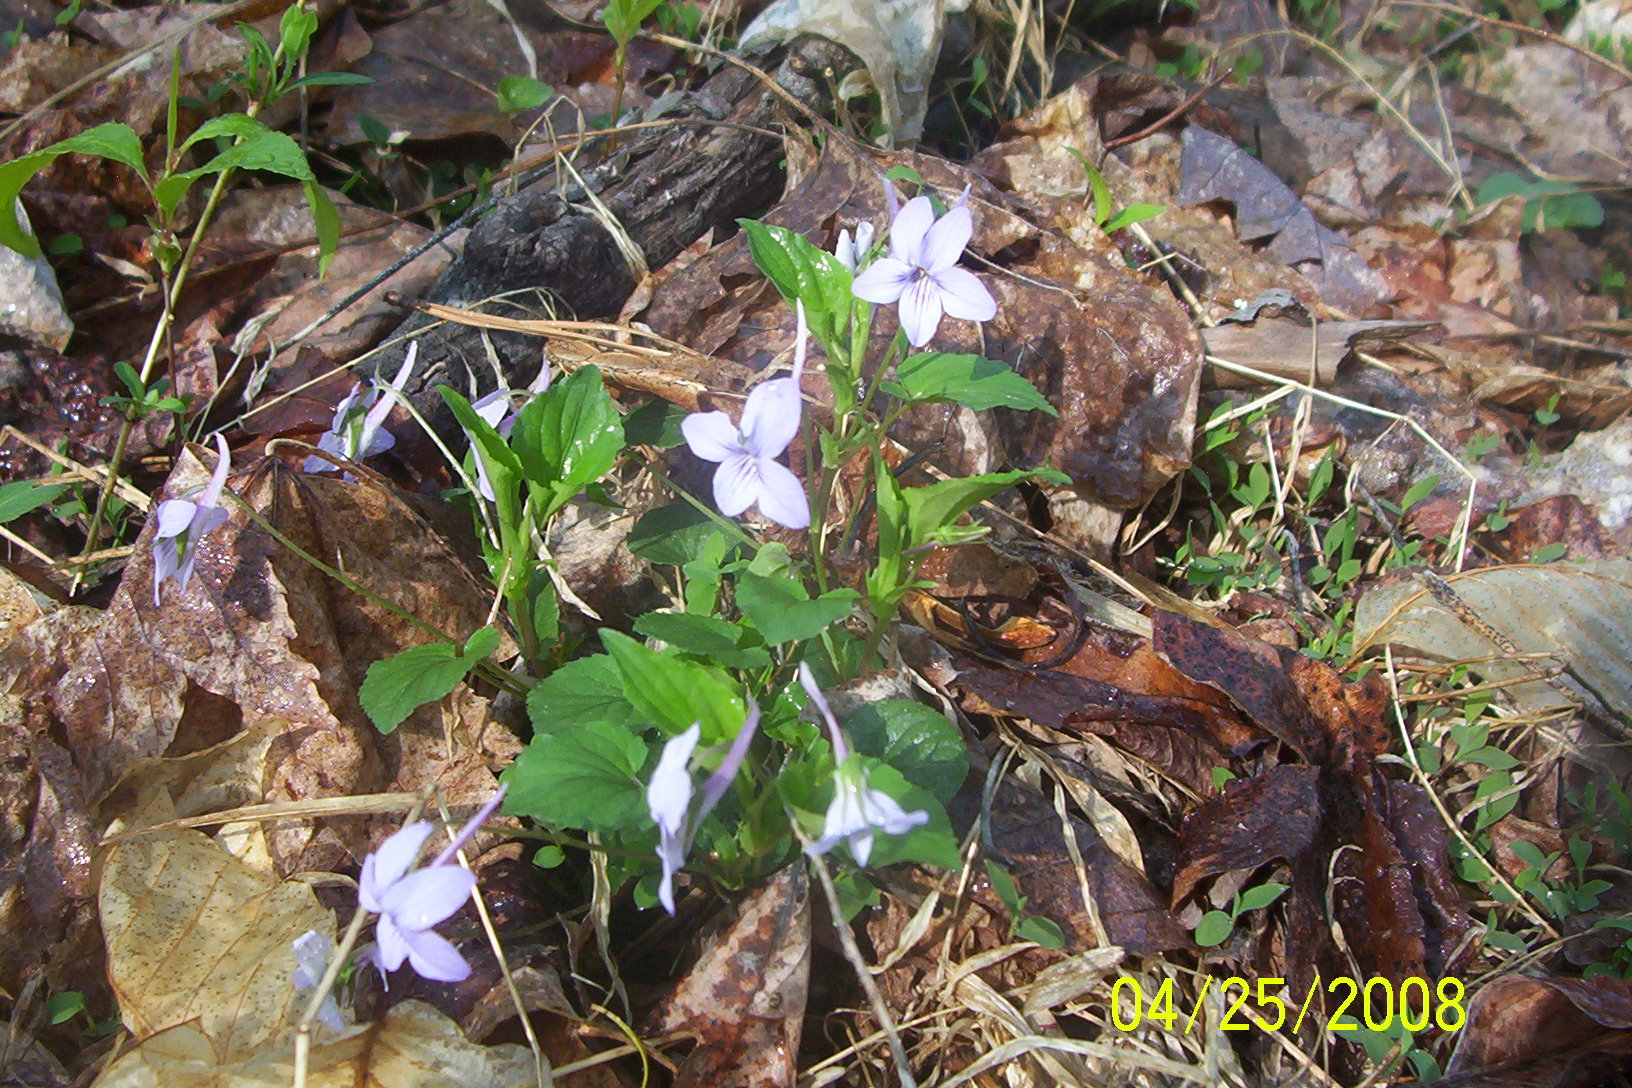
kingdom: Plantae
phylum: Tracheophyta
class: Magnoliopsida
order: Malpighiales
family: Violaceae
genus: Viola
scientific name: Viola rostrata
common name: Long-spur violet
